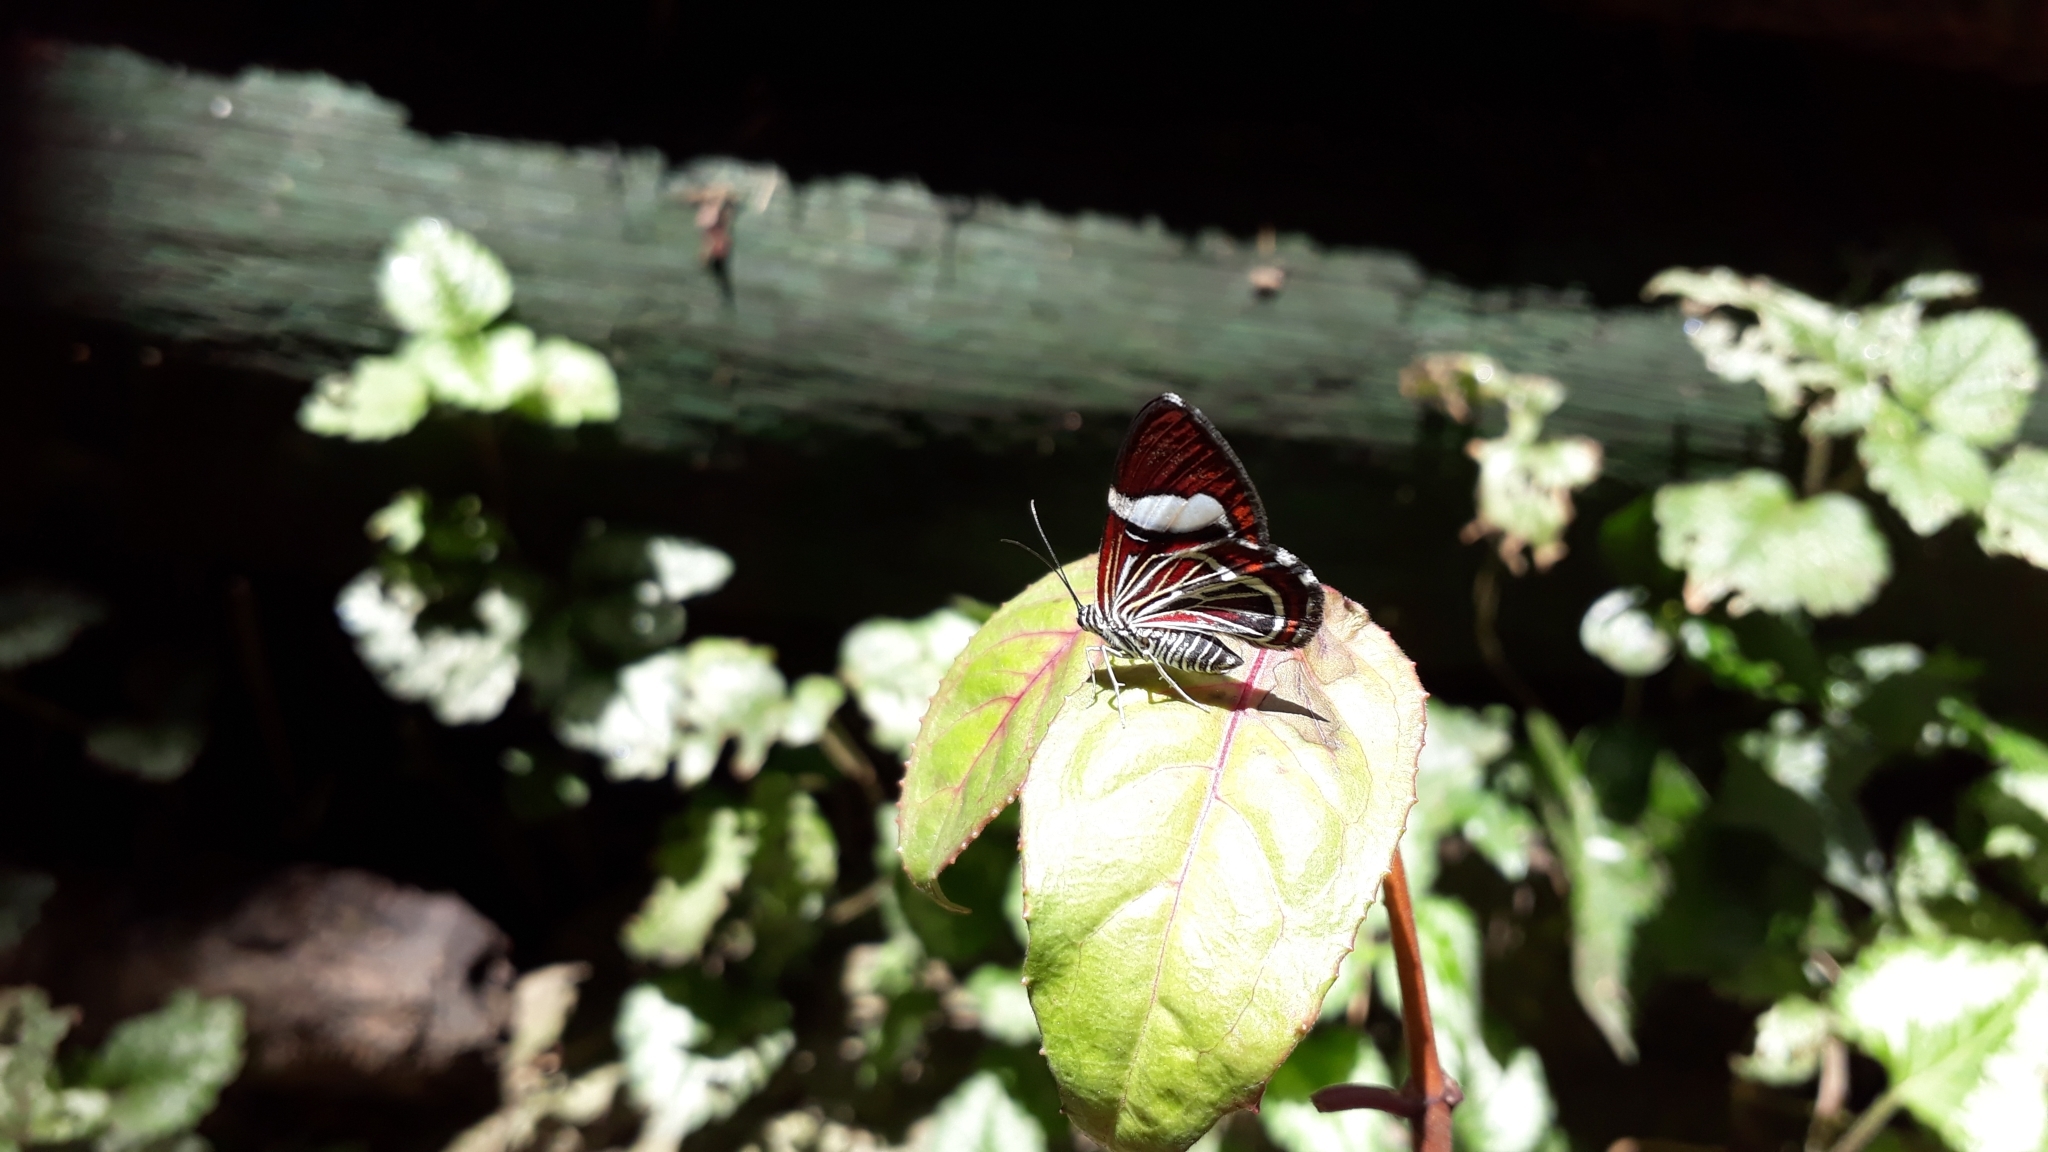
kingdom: Animalia
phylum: Arthropoda
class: Insecta
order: Lepidoptera
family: Geometridae
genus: Erateina
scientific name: Erateina siliquata
